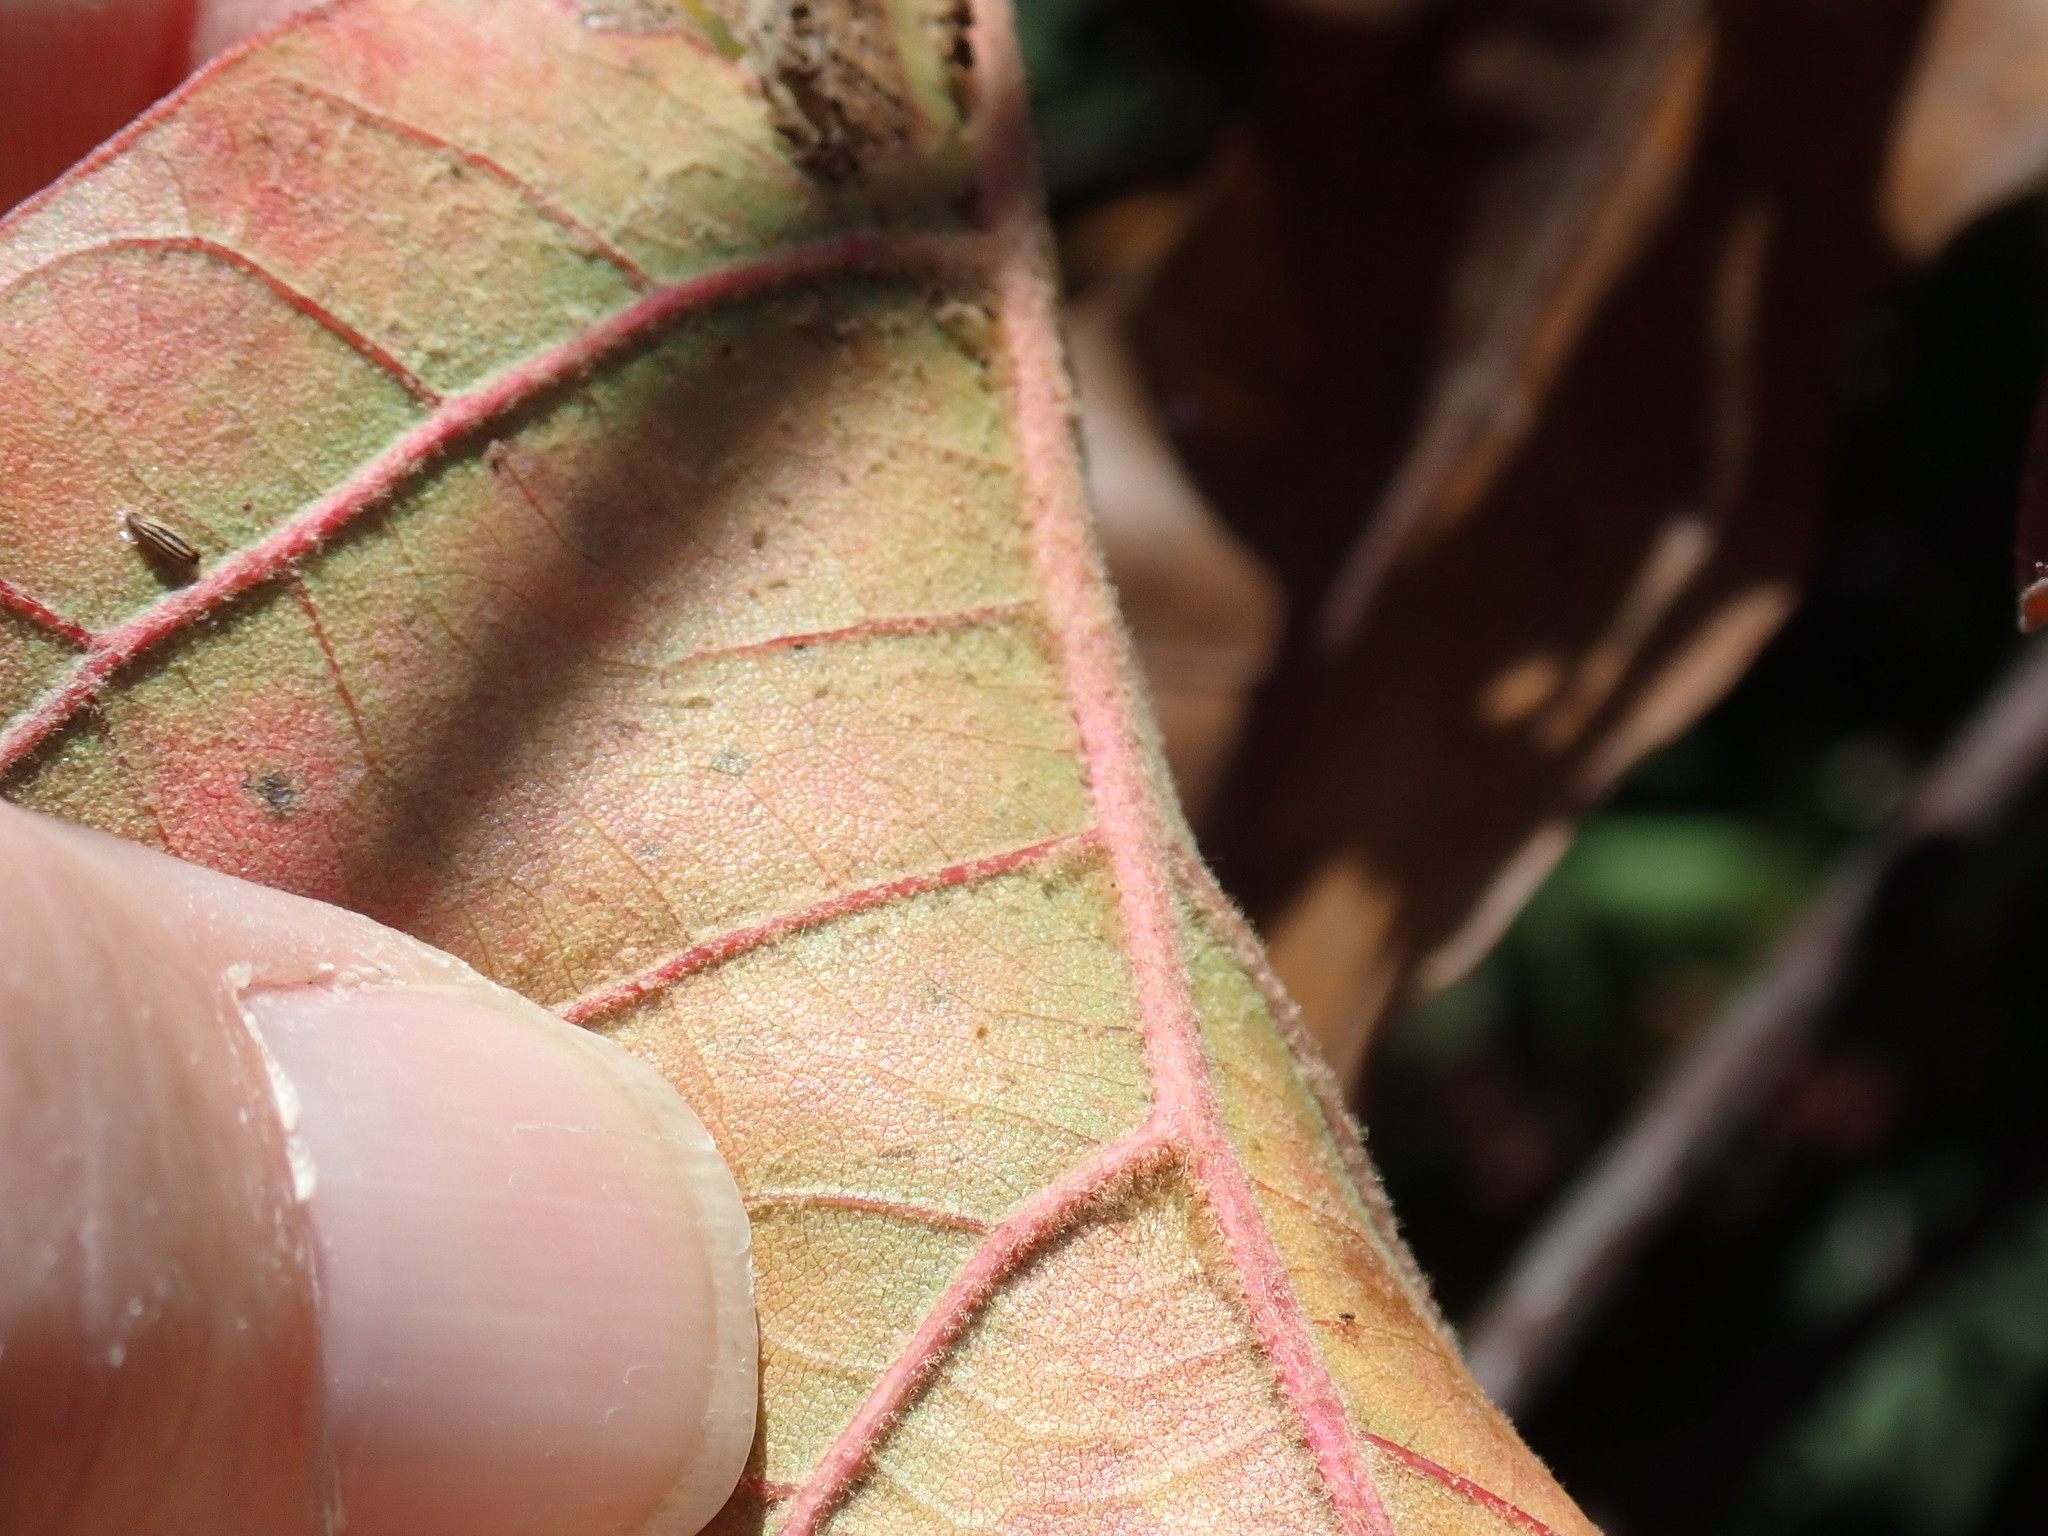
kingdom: Plantae
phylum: Tracheophyta
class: Magnoliopsida
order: Fagales
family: Fagaceae
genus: Quercus
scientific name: Quercus velutina
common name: Black oak
